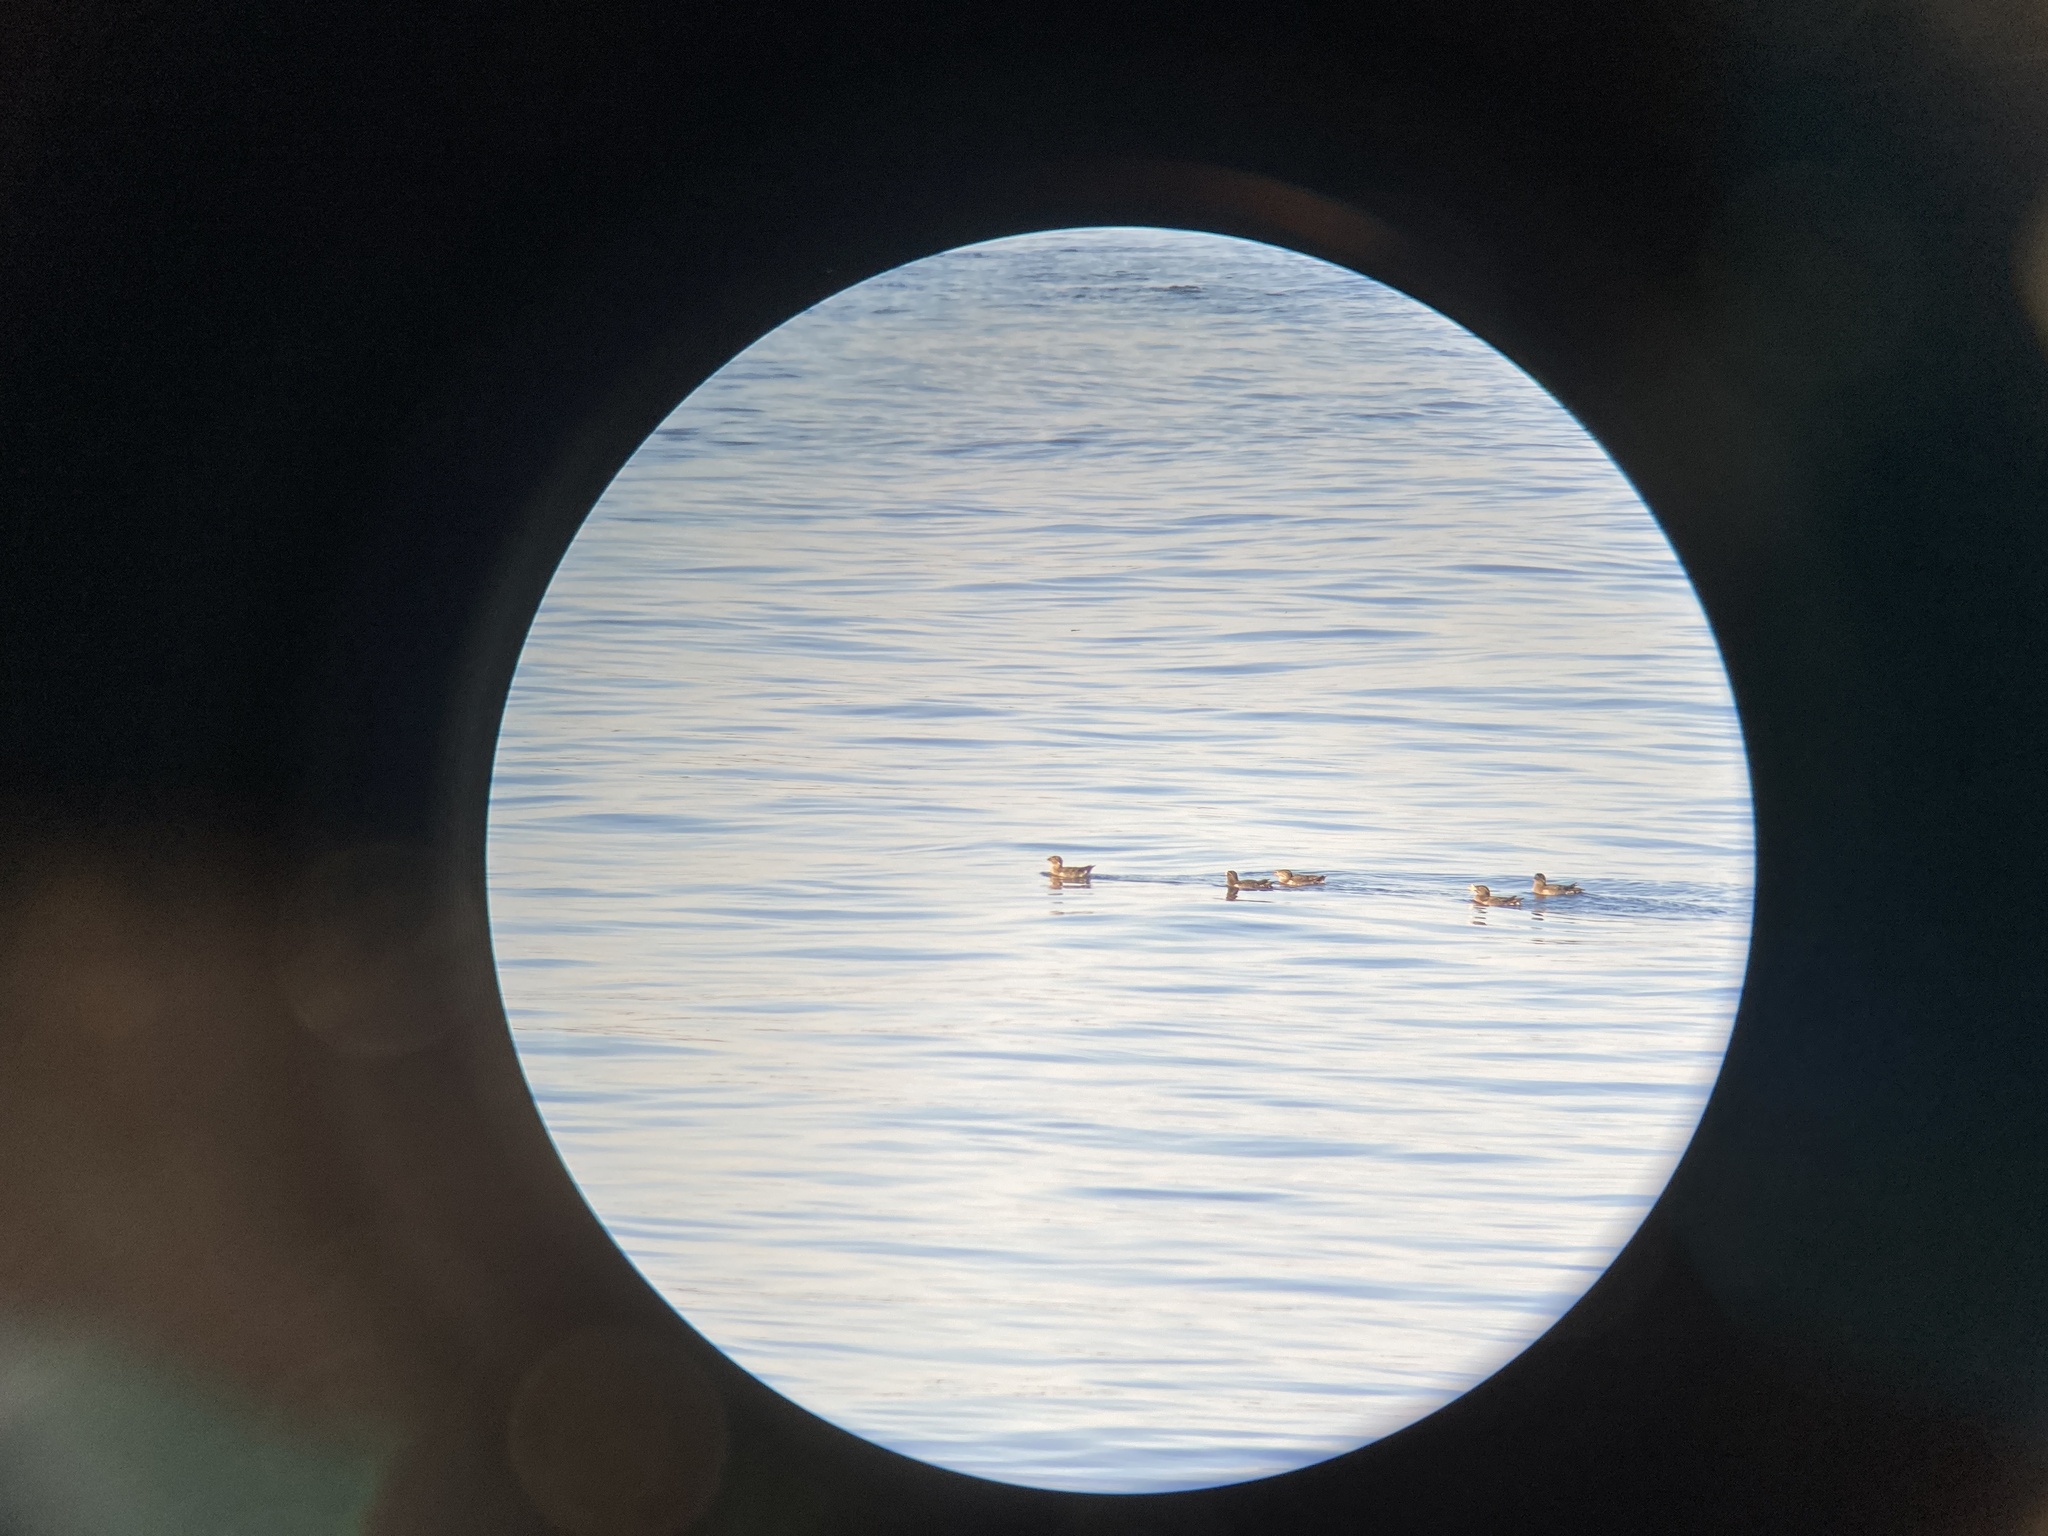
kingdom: Animalia
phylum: Chordata
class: Aves
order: Charadriiformes
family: Alcidae
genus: Cerorhinca
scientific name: Cerorhinca monocerata
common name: Rhinoceros auklet
